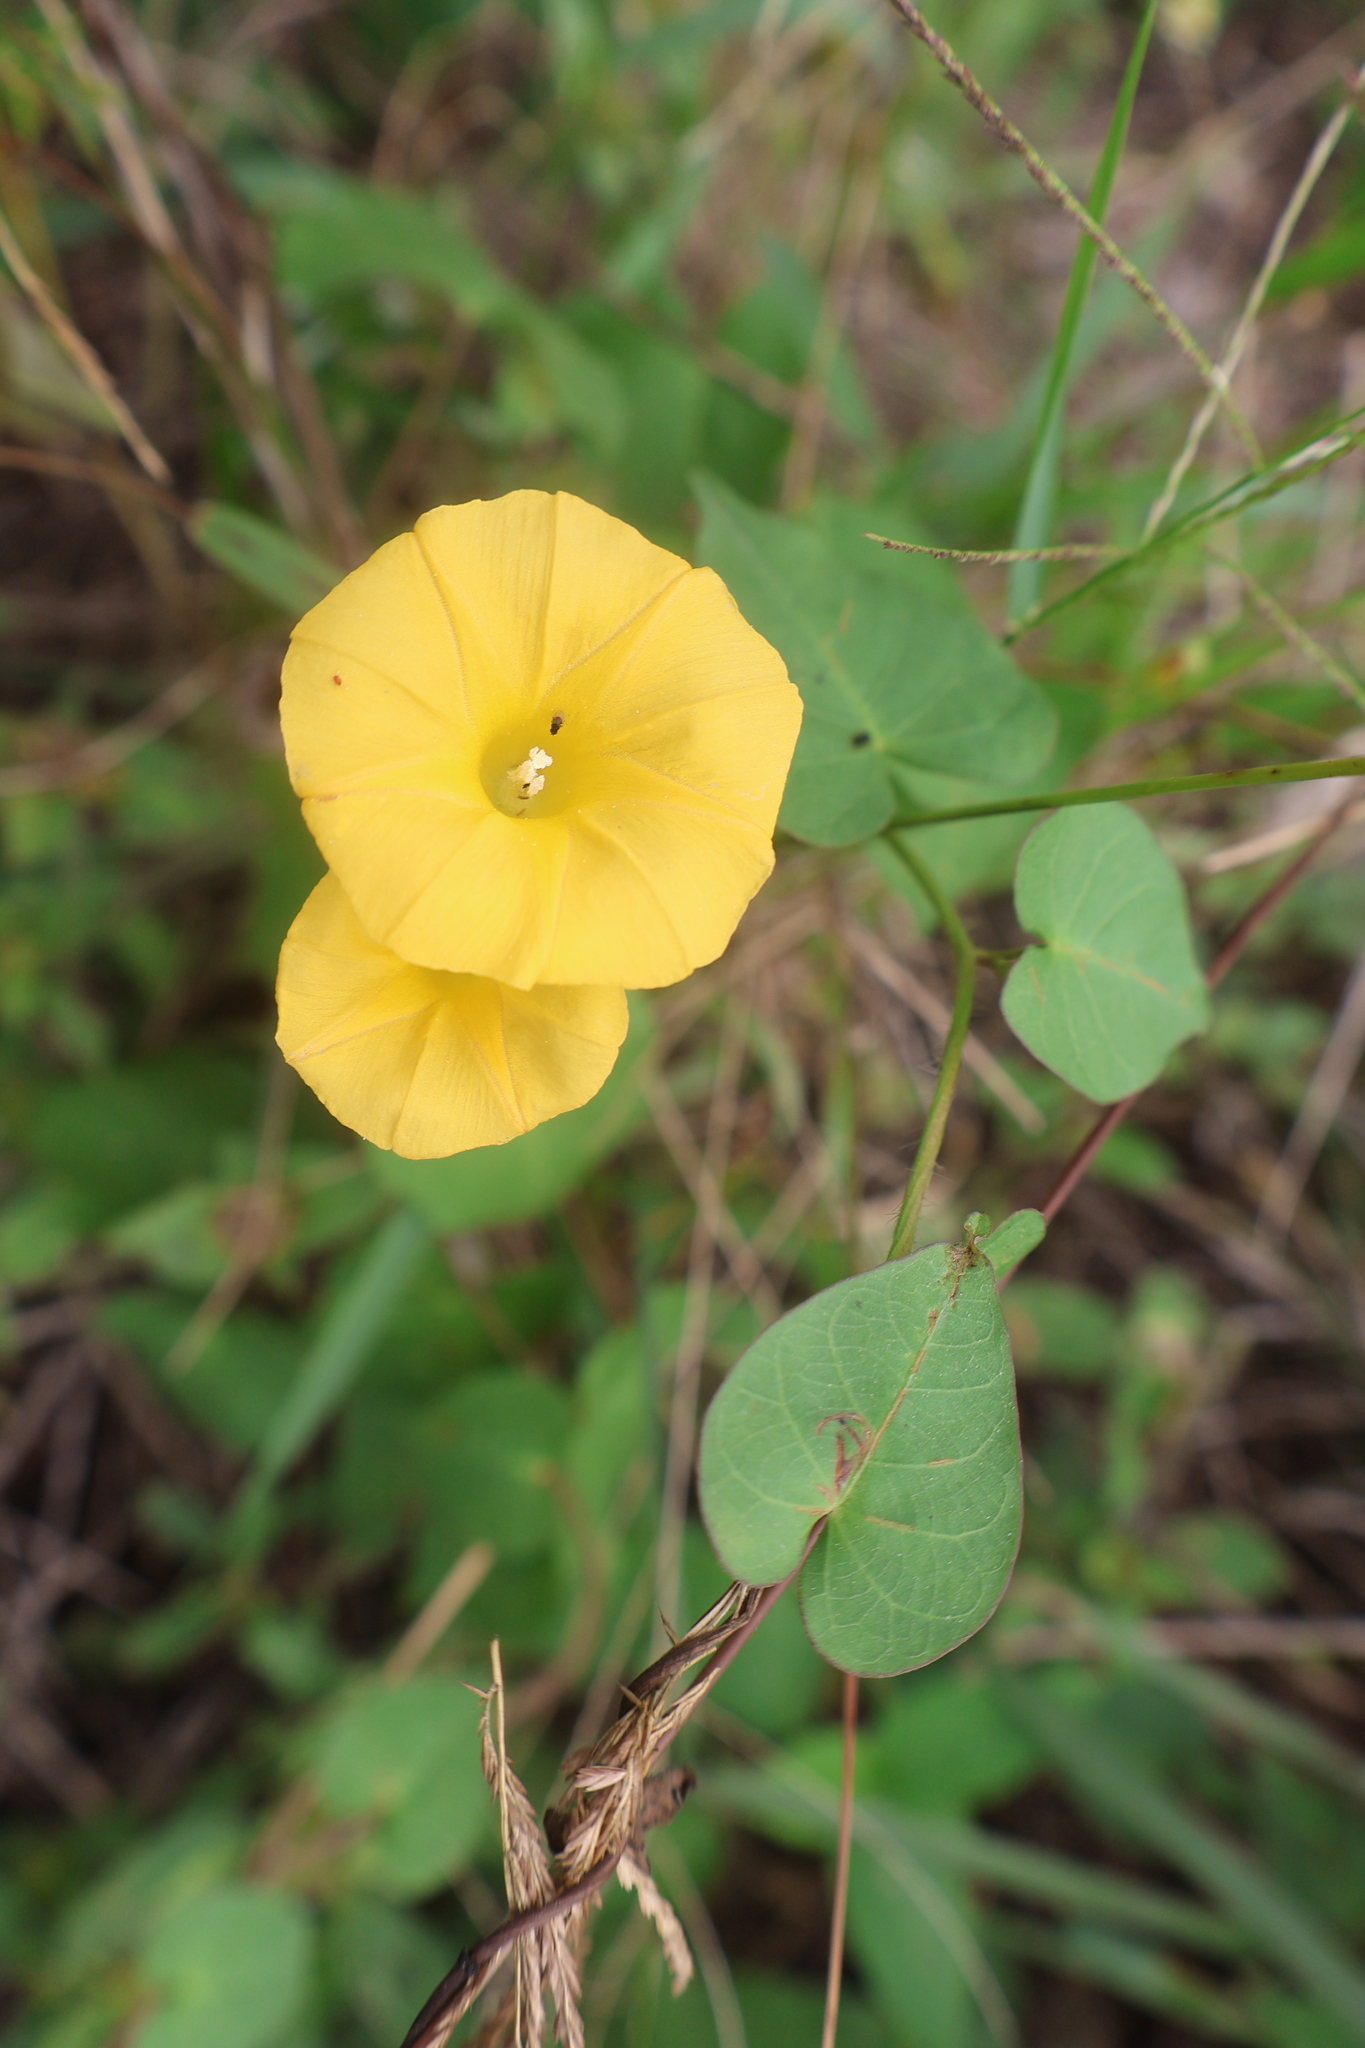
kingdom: Plantae
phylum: Tracheophyta
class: Magnoliopsida
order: Solanales
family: Convolvulaceae
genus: Ipomoea
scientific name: Ipomoea microsepala
